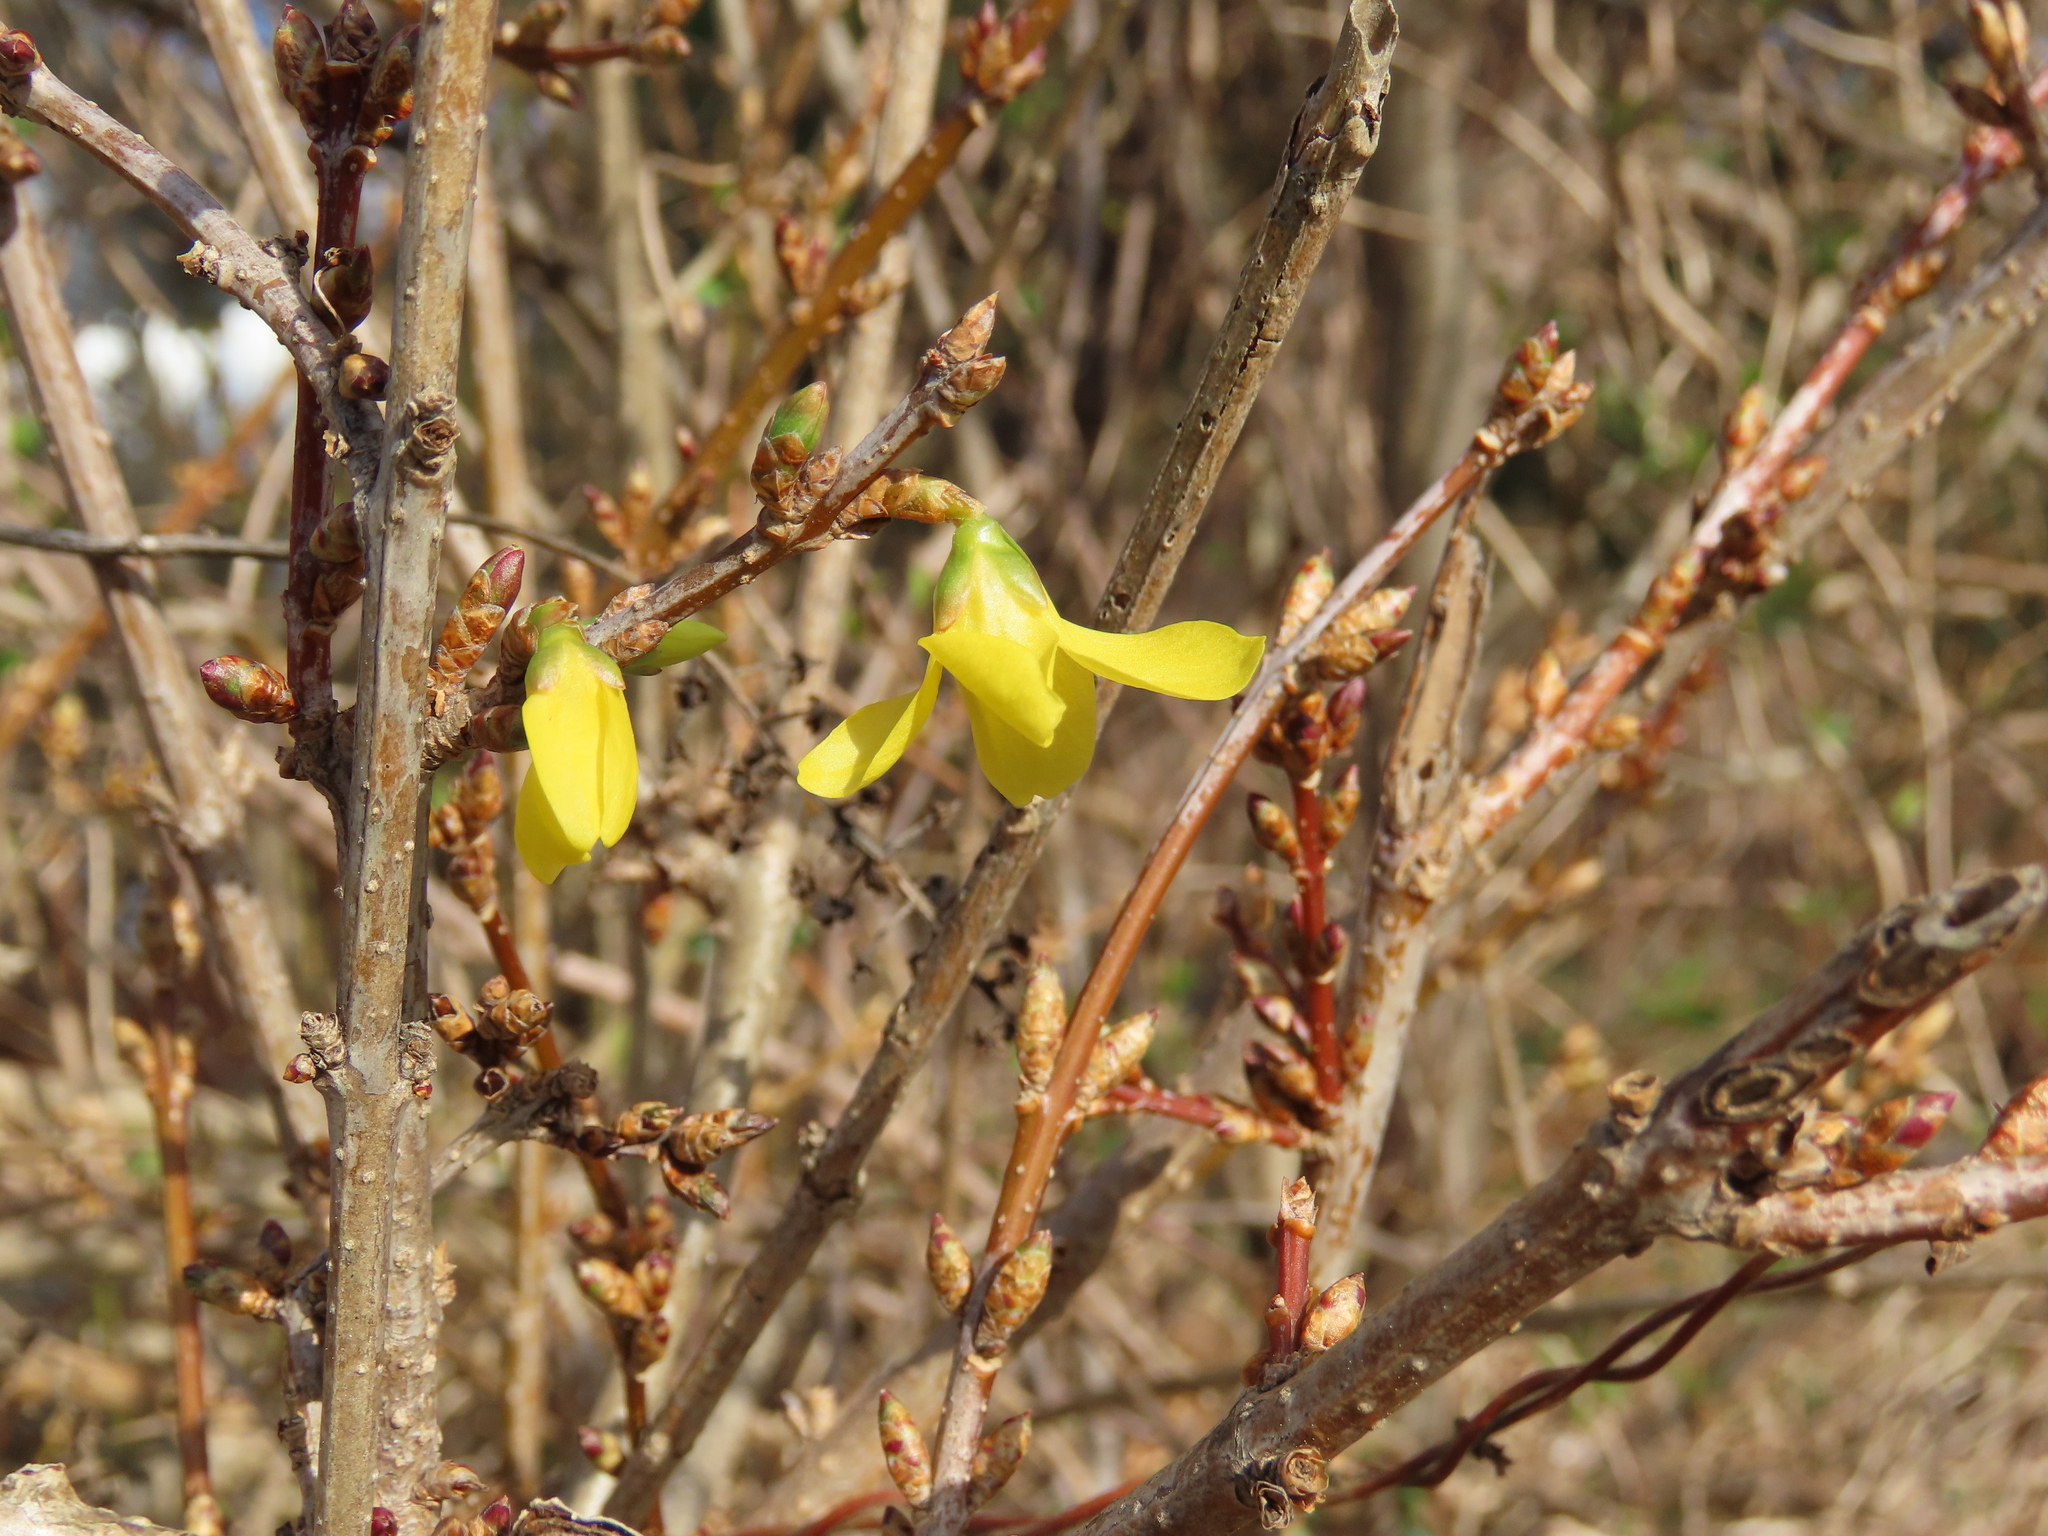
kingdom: Plantae
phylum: Tracheophyta
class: Magnoliopsida
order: Lamiales
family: Oleaceae
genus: Forsythia
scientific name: Forsythia intermedia
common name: Forsythia
